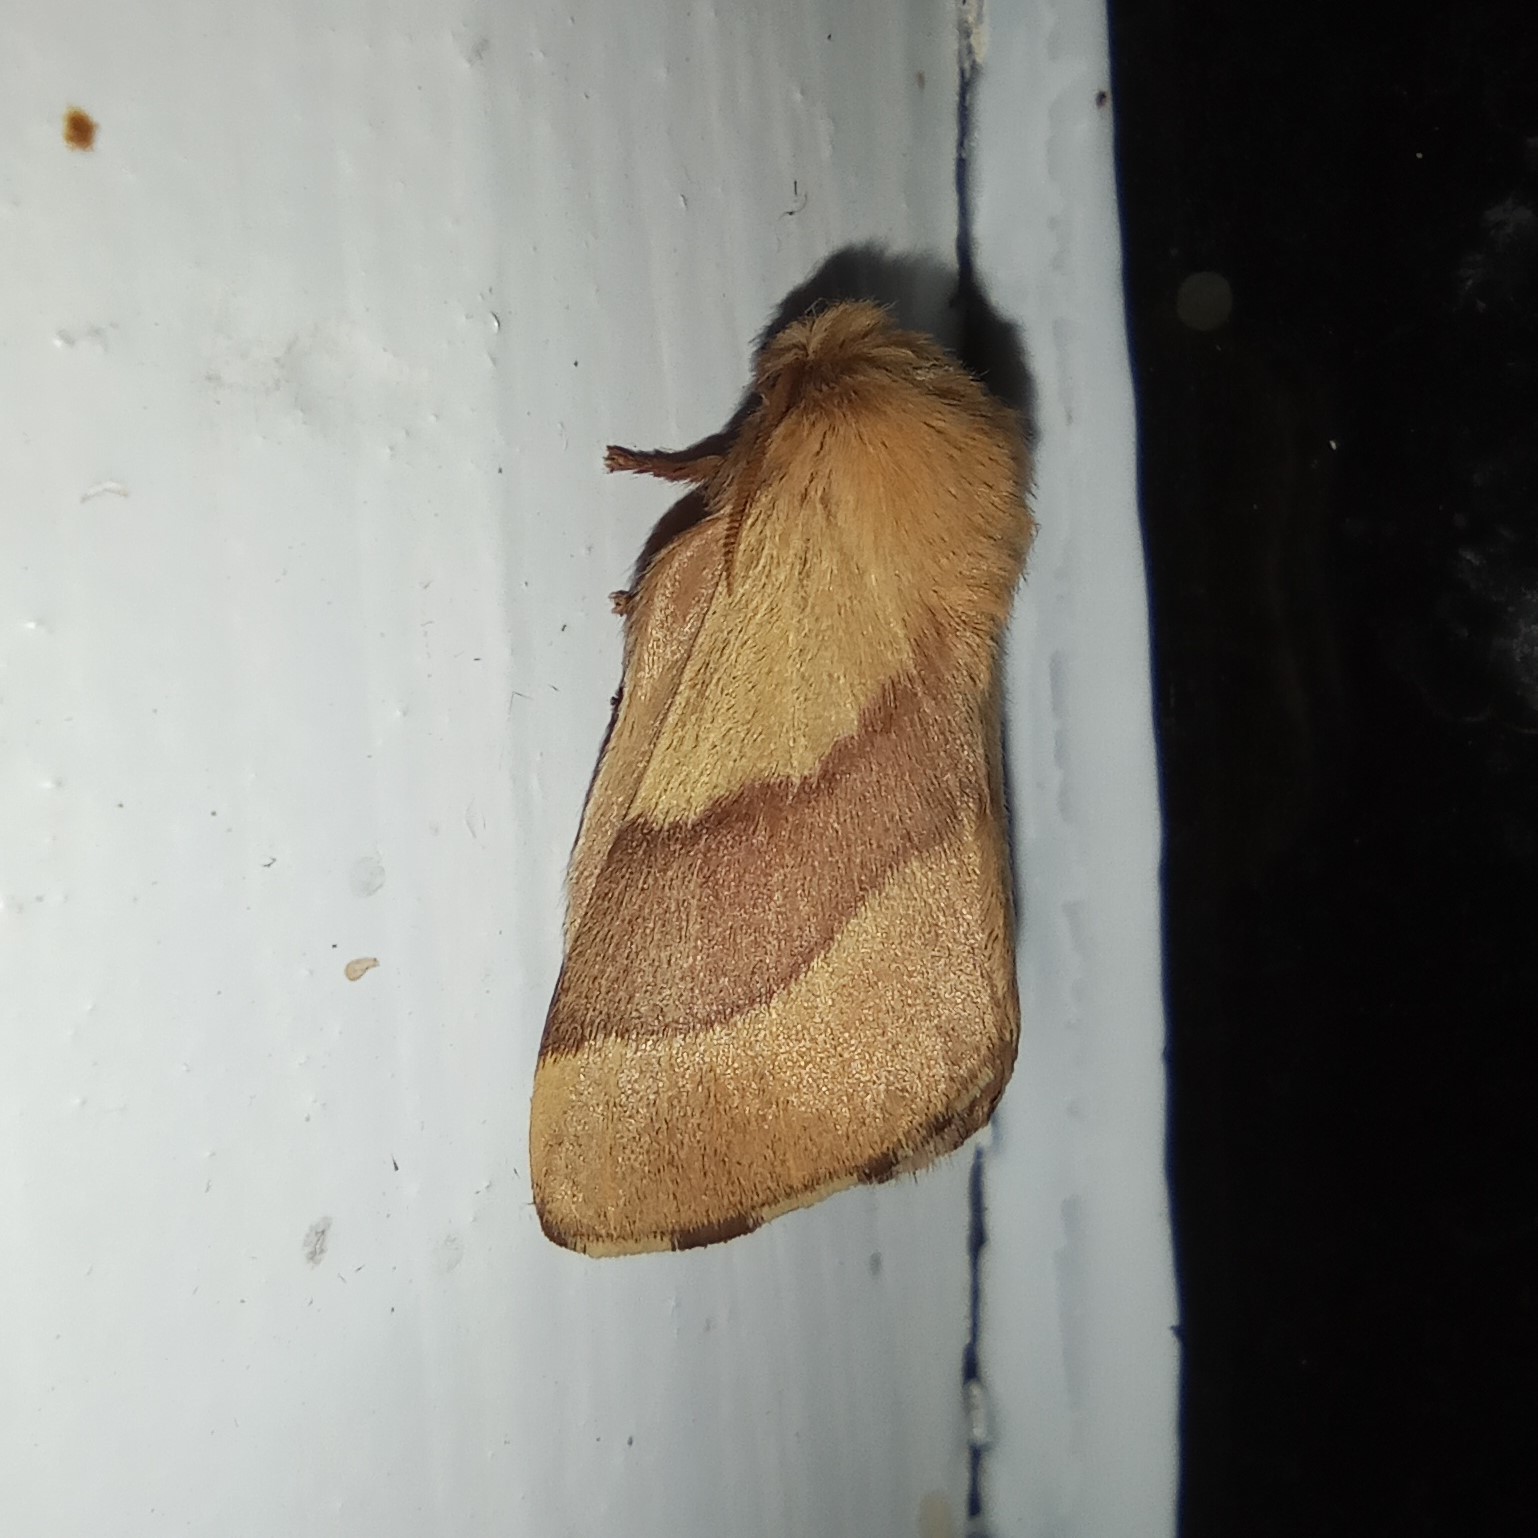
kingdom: Animalia
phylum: Arthropoda
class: Insecta
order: Lepidoptera
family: Lasiocampidae
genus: Malacosoma
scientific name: Malacosoma neustria
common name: The lackey
